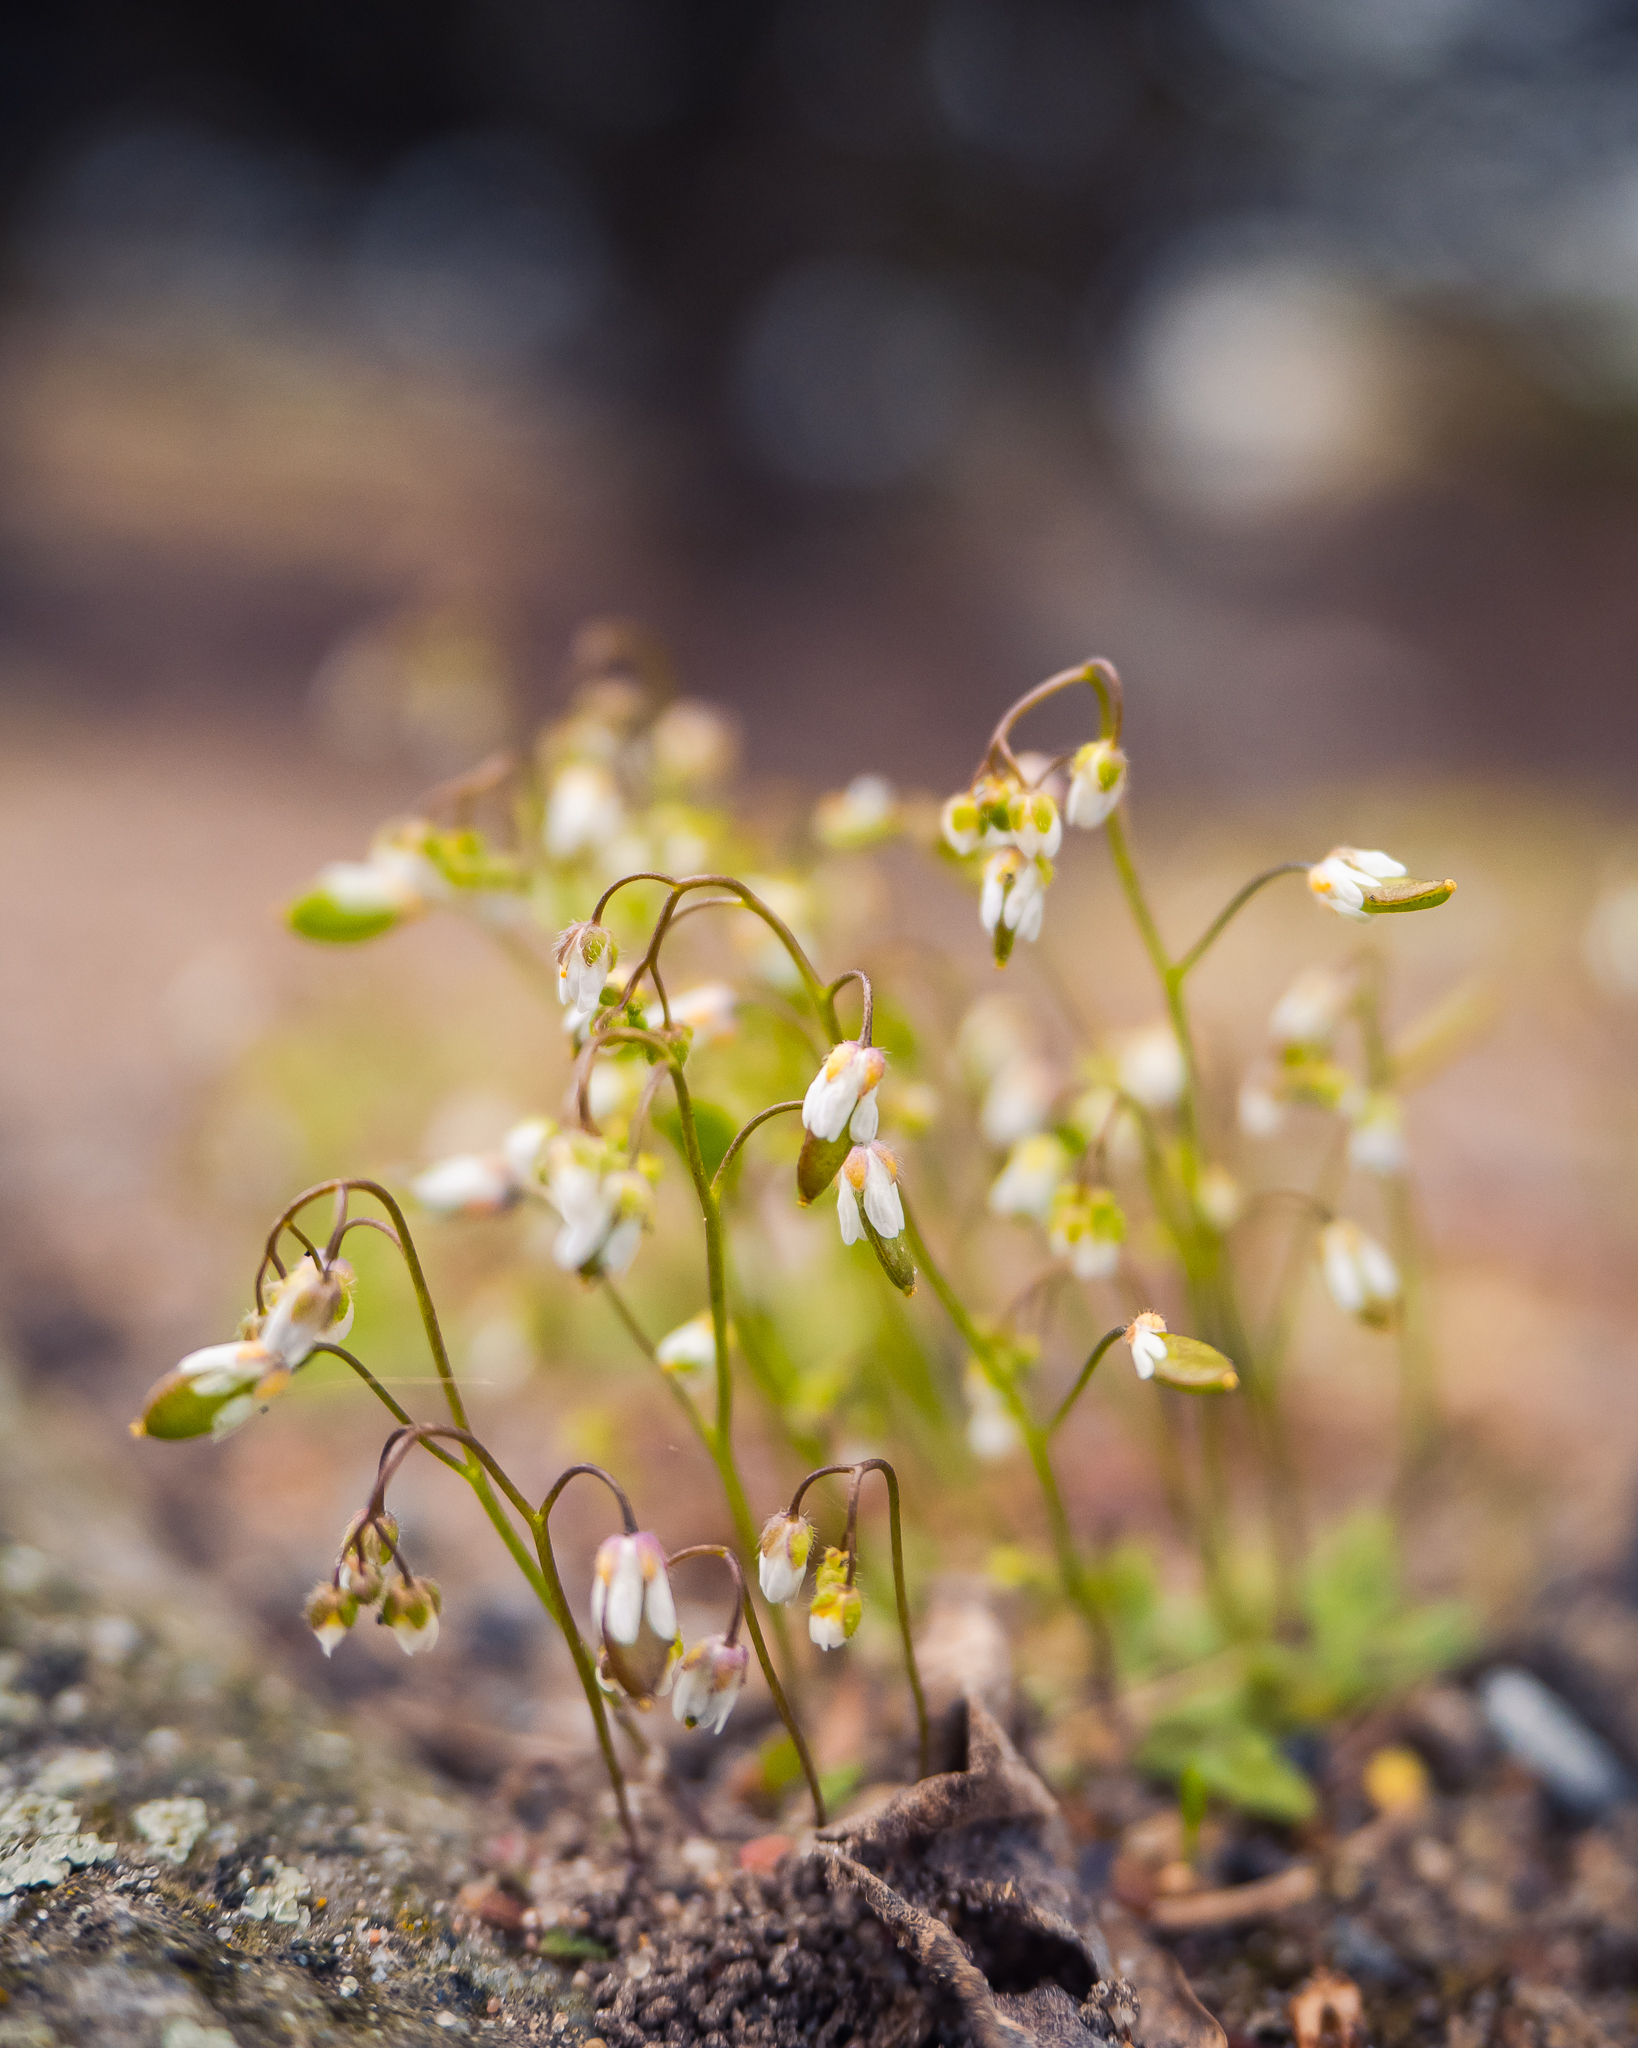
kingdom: Plantae
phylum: Tracheophyta
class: Magnoliopsida
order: Brassicales
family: Brassicaceae
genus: Draba
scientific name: Draba verna
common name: Spring draba
